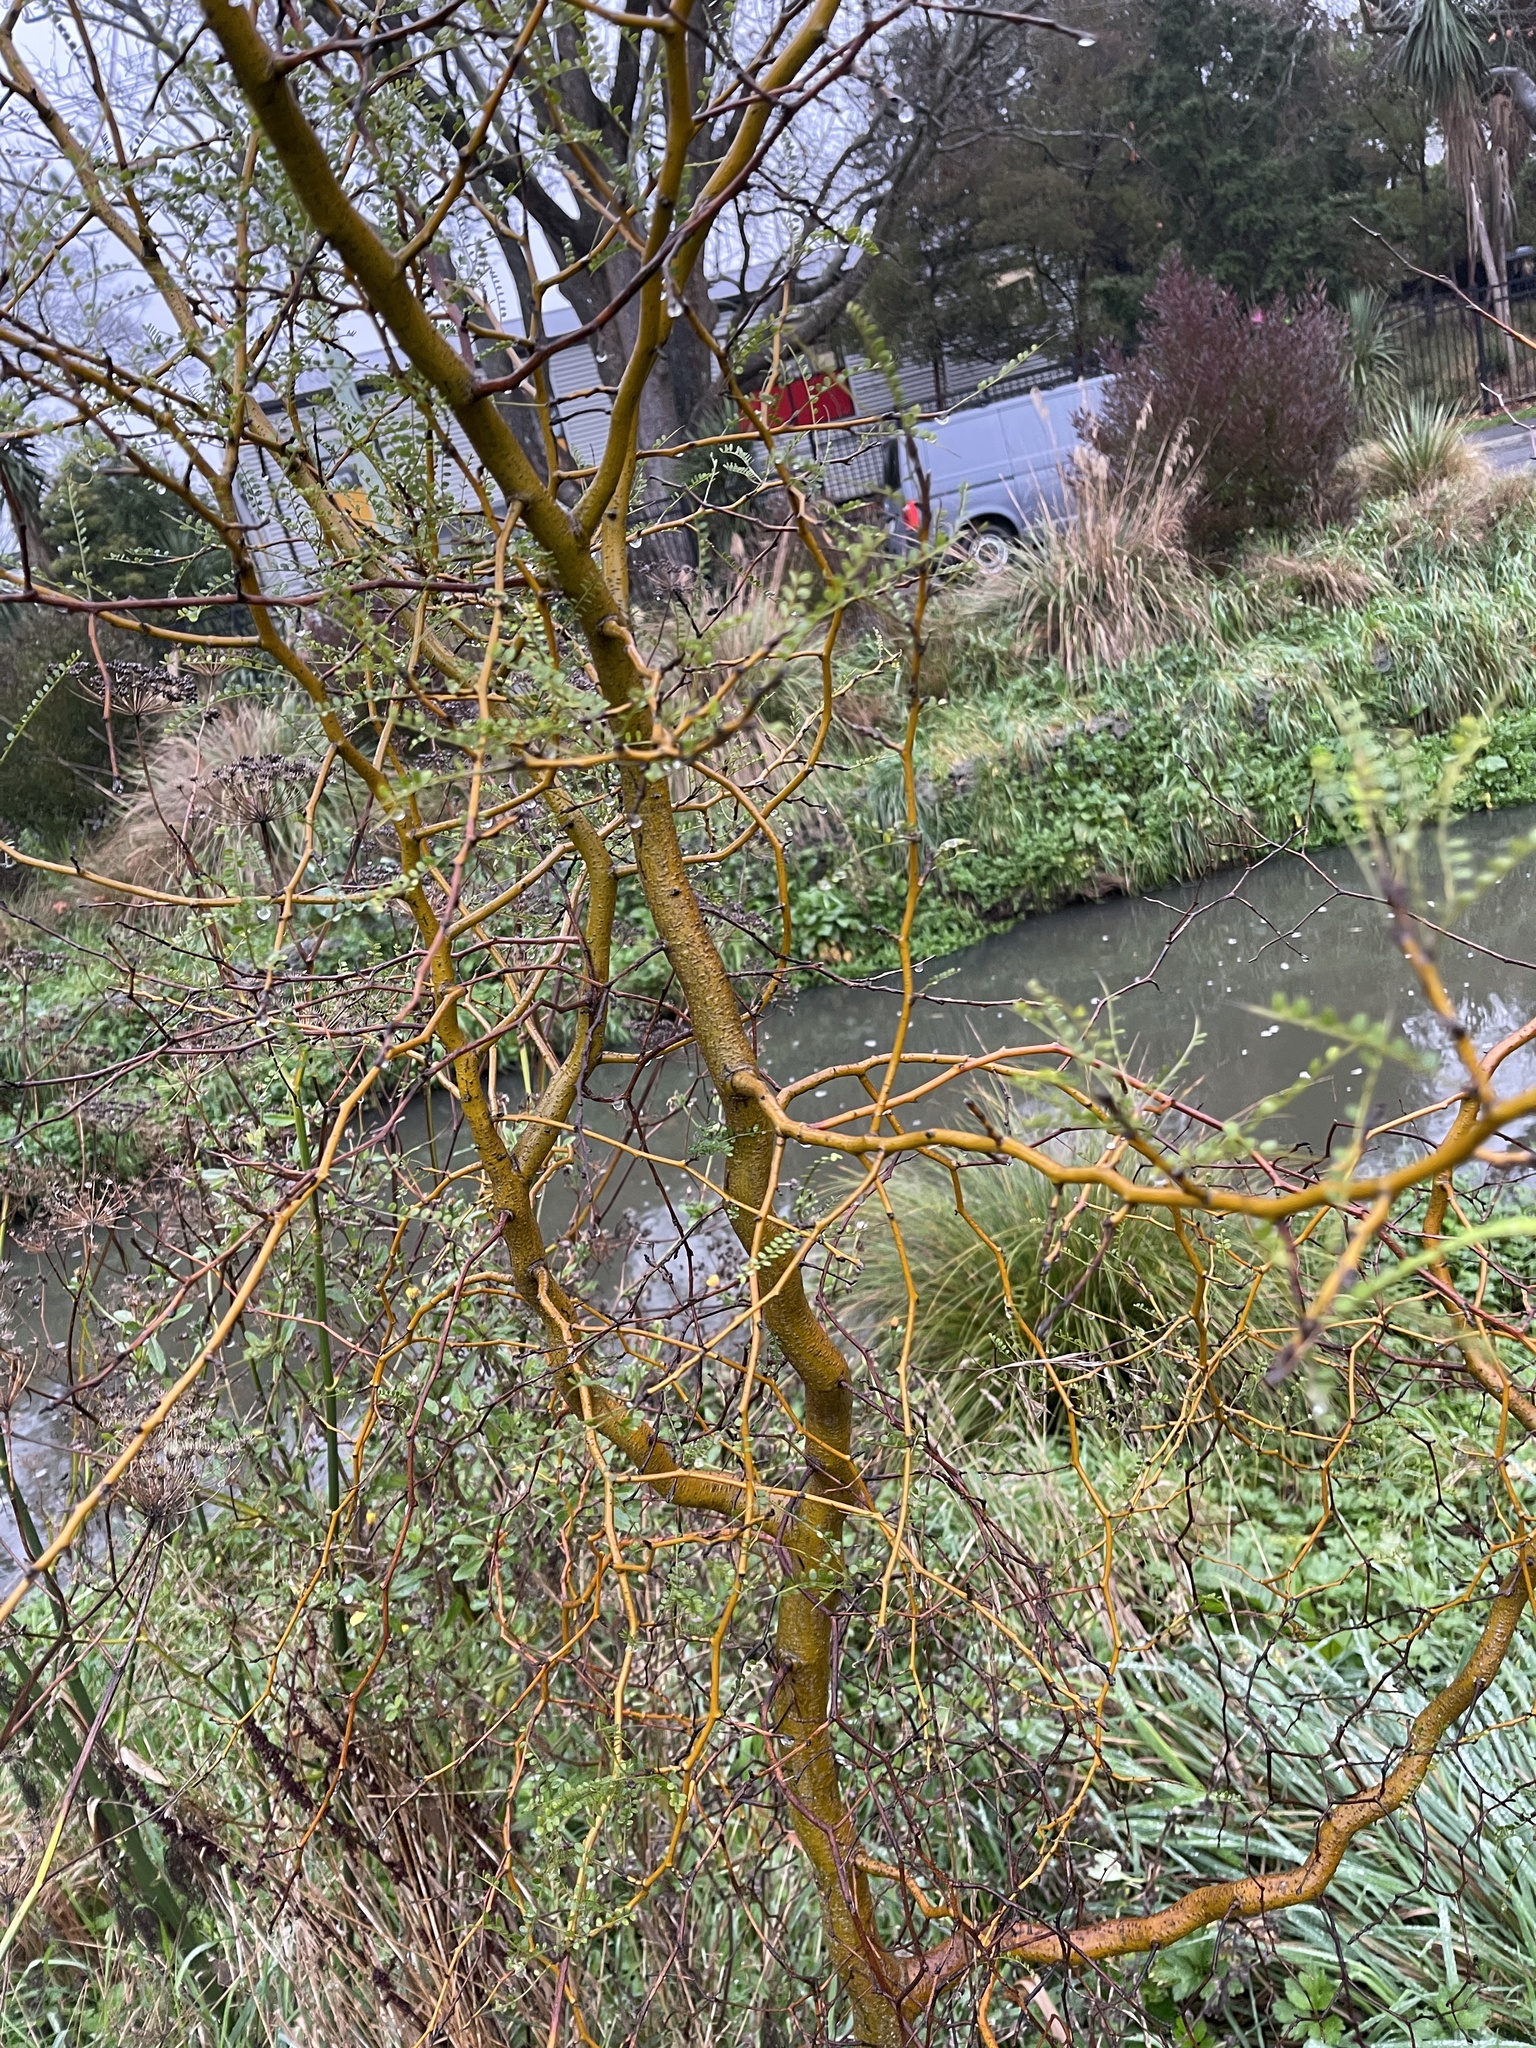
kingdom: Plantae
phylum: Tracheophyta
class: Magnoliopsida
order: Fabales
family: Fabaceae
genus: Sophora
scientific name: Sophora microphylla
